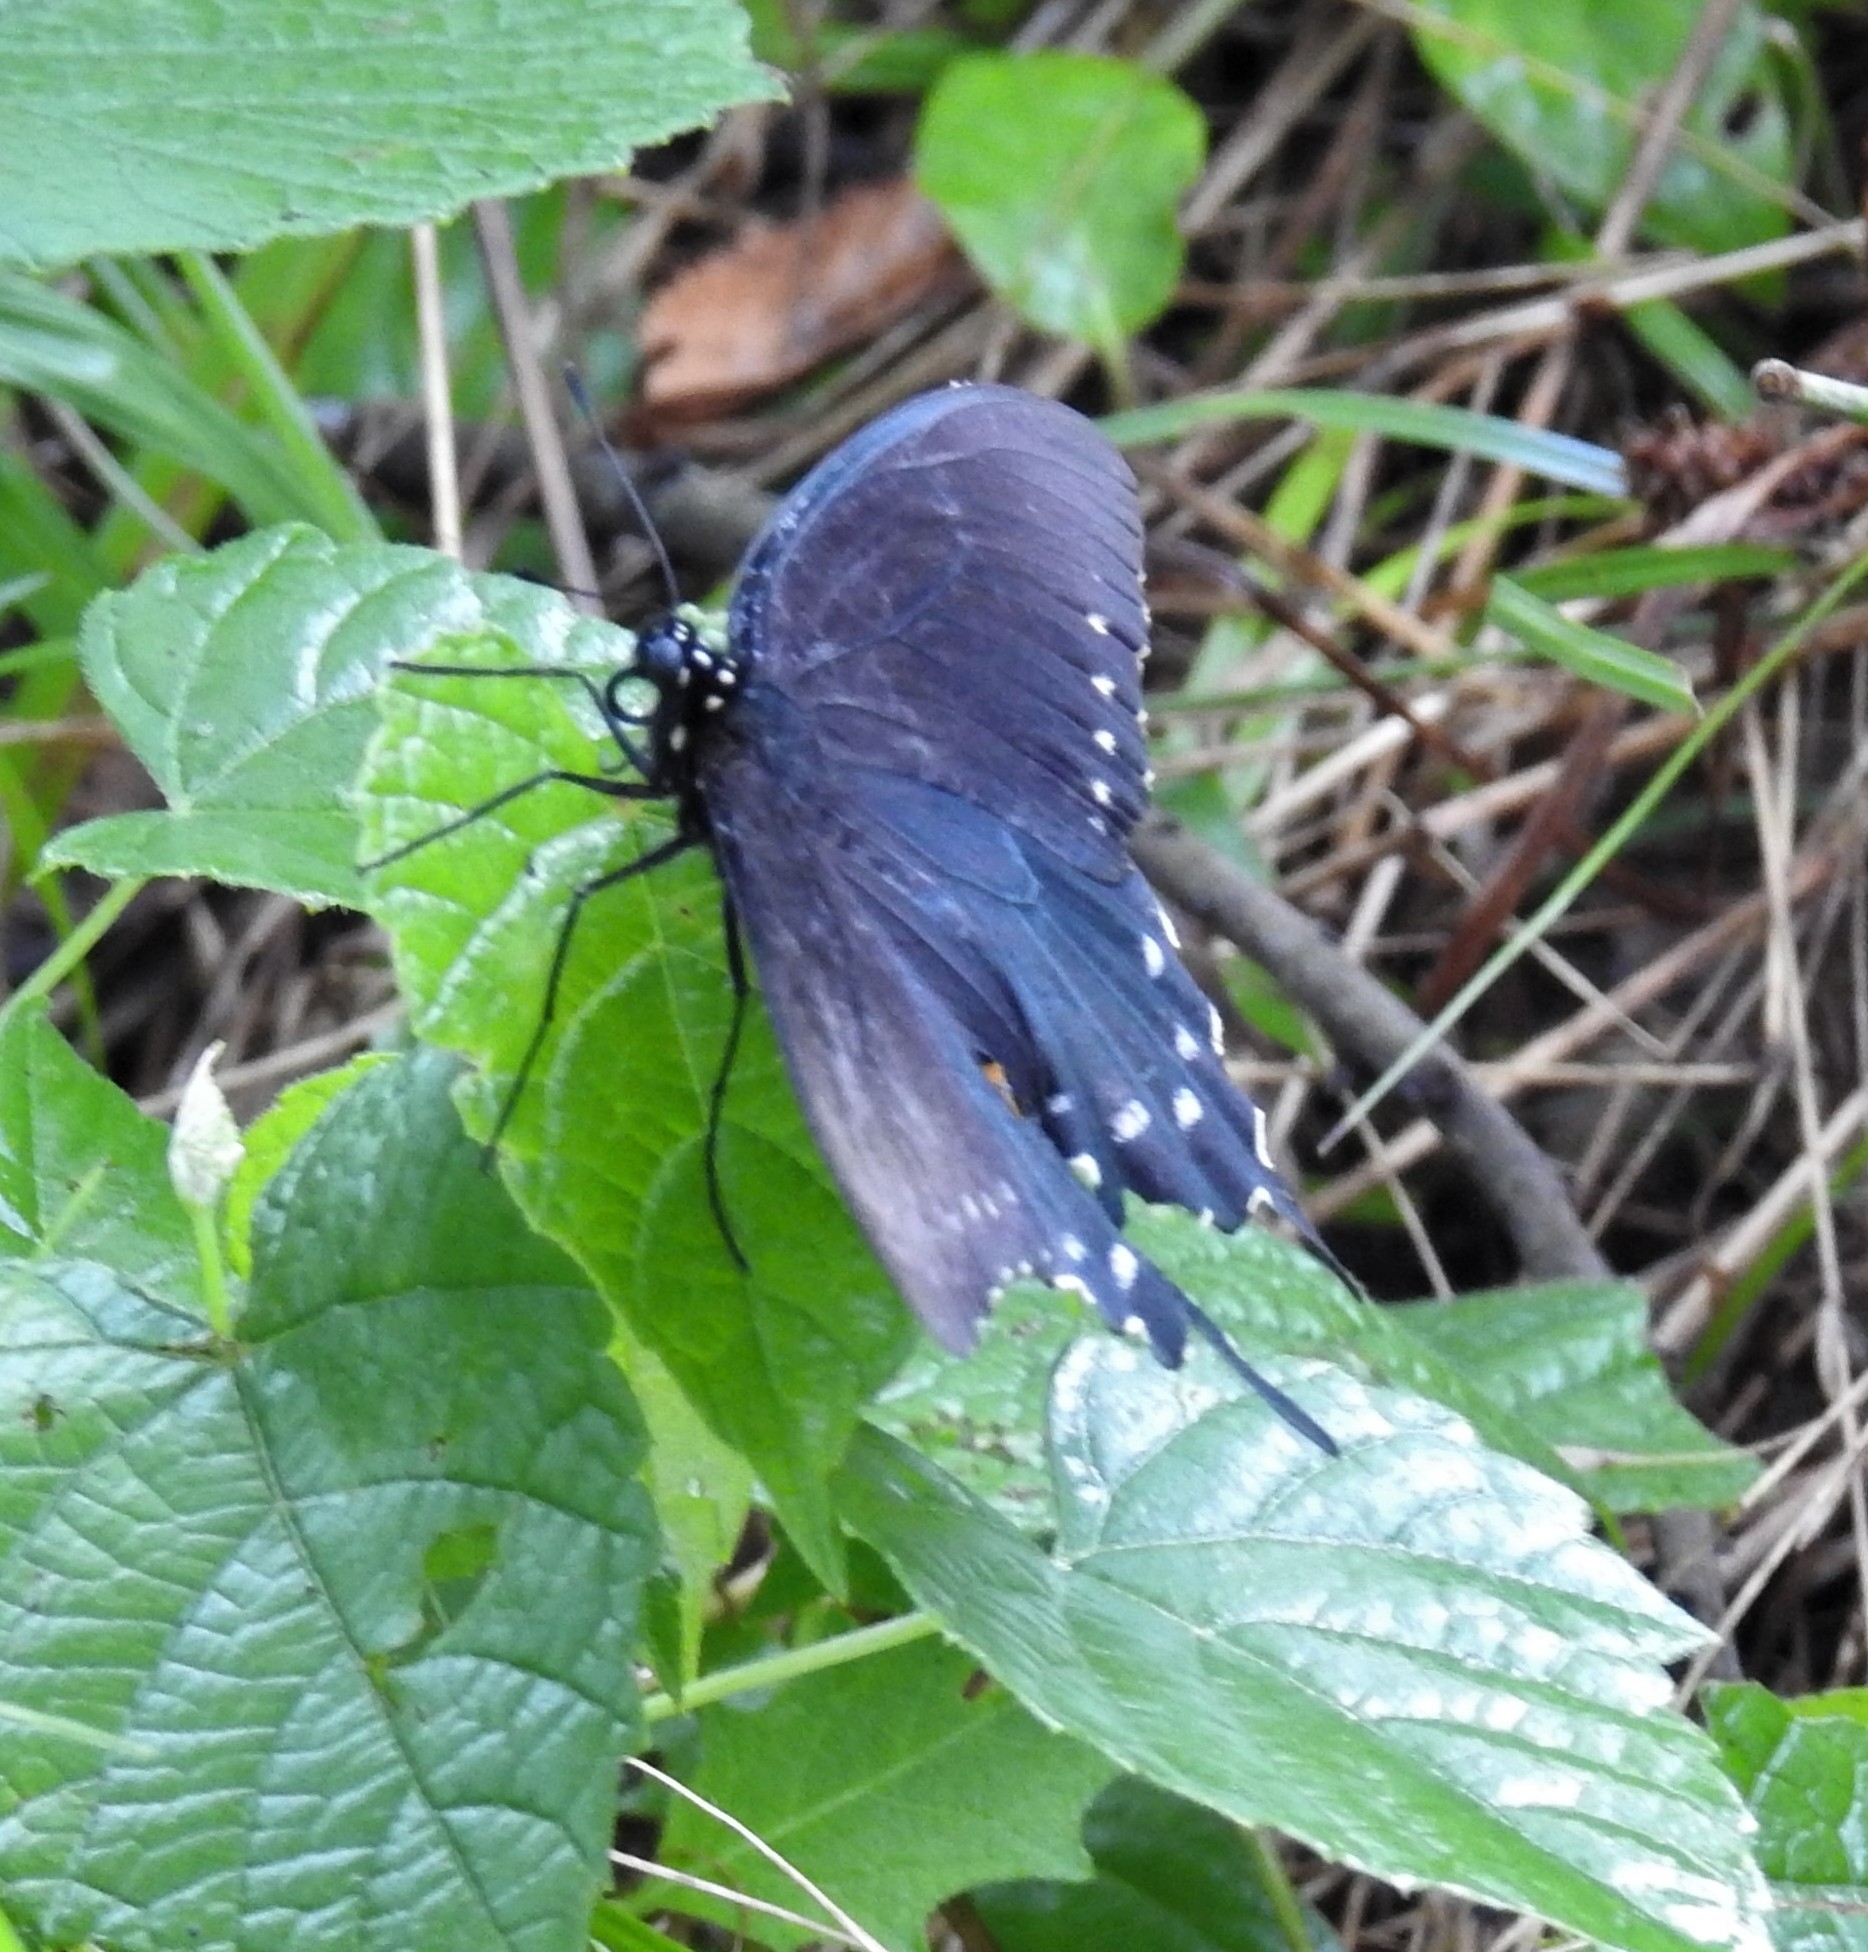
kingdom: Animalia
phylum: Arthropoda
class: Insecta
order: Lepidoptera
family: Papilionidae
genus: Battus
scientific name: Battus philenor
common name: Pipevine swallowtail
